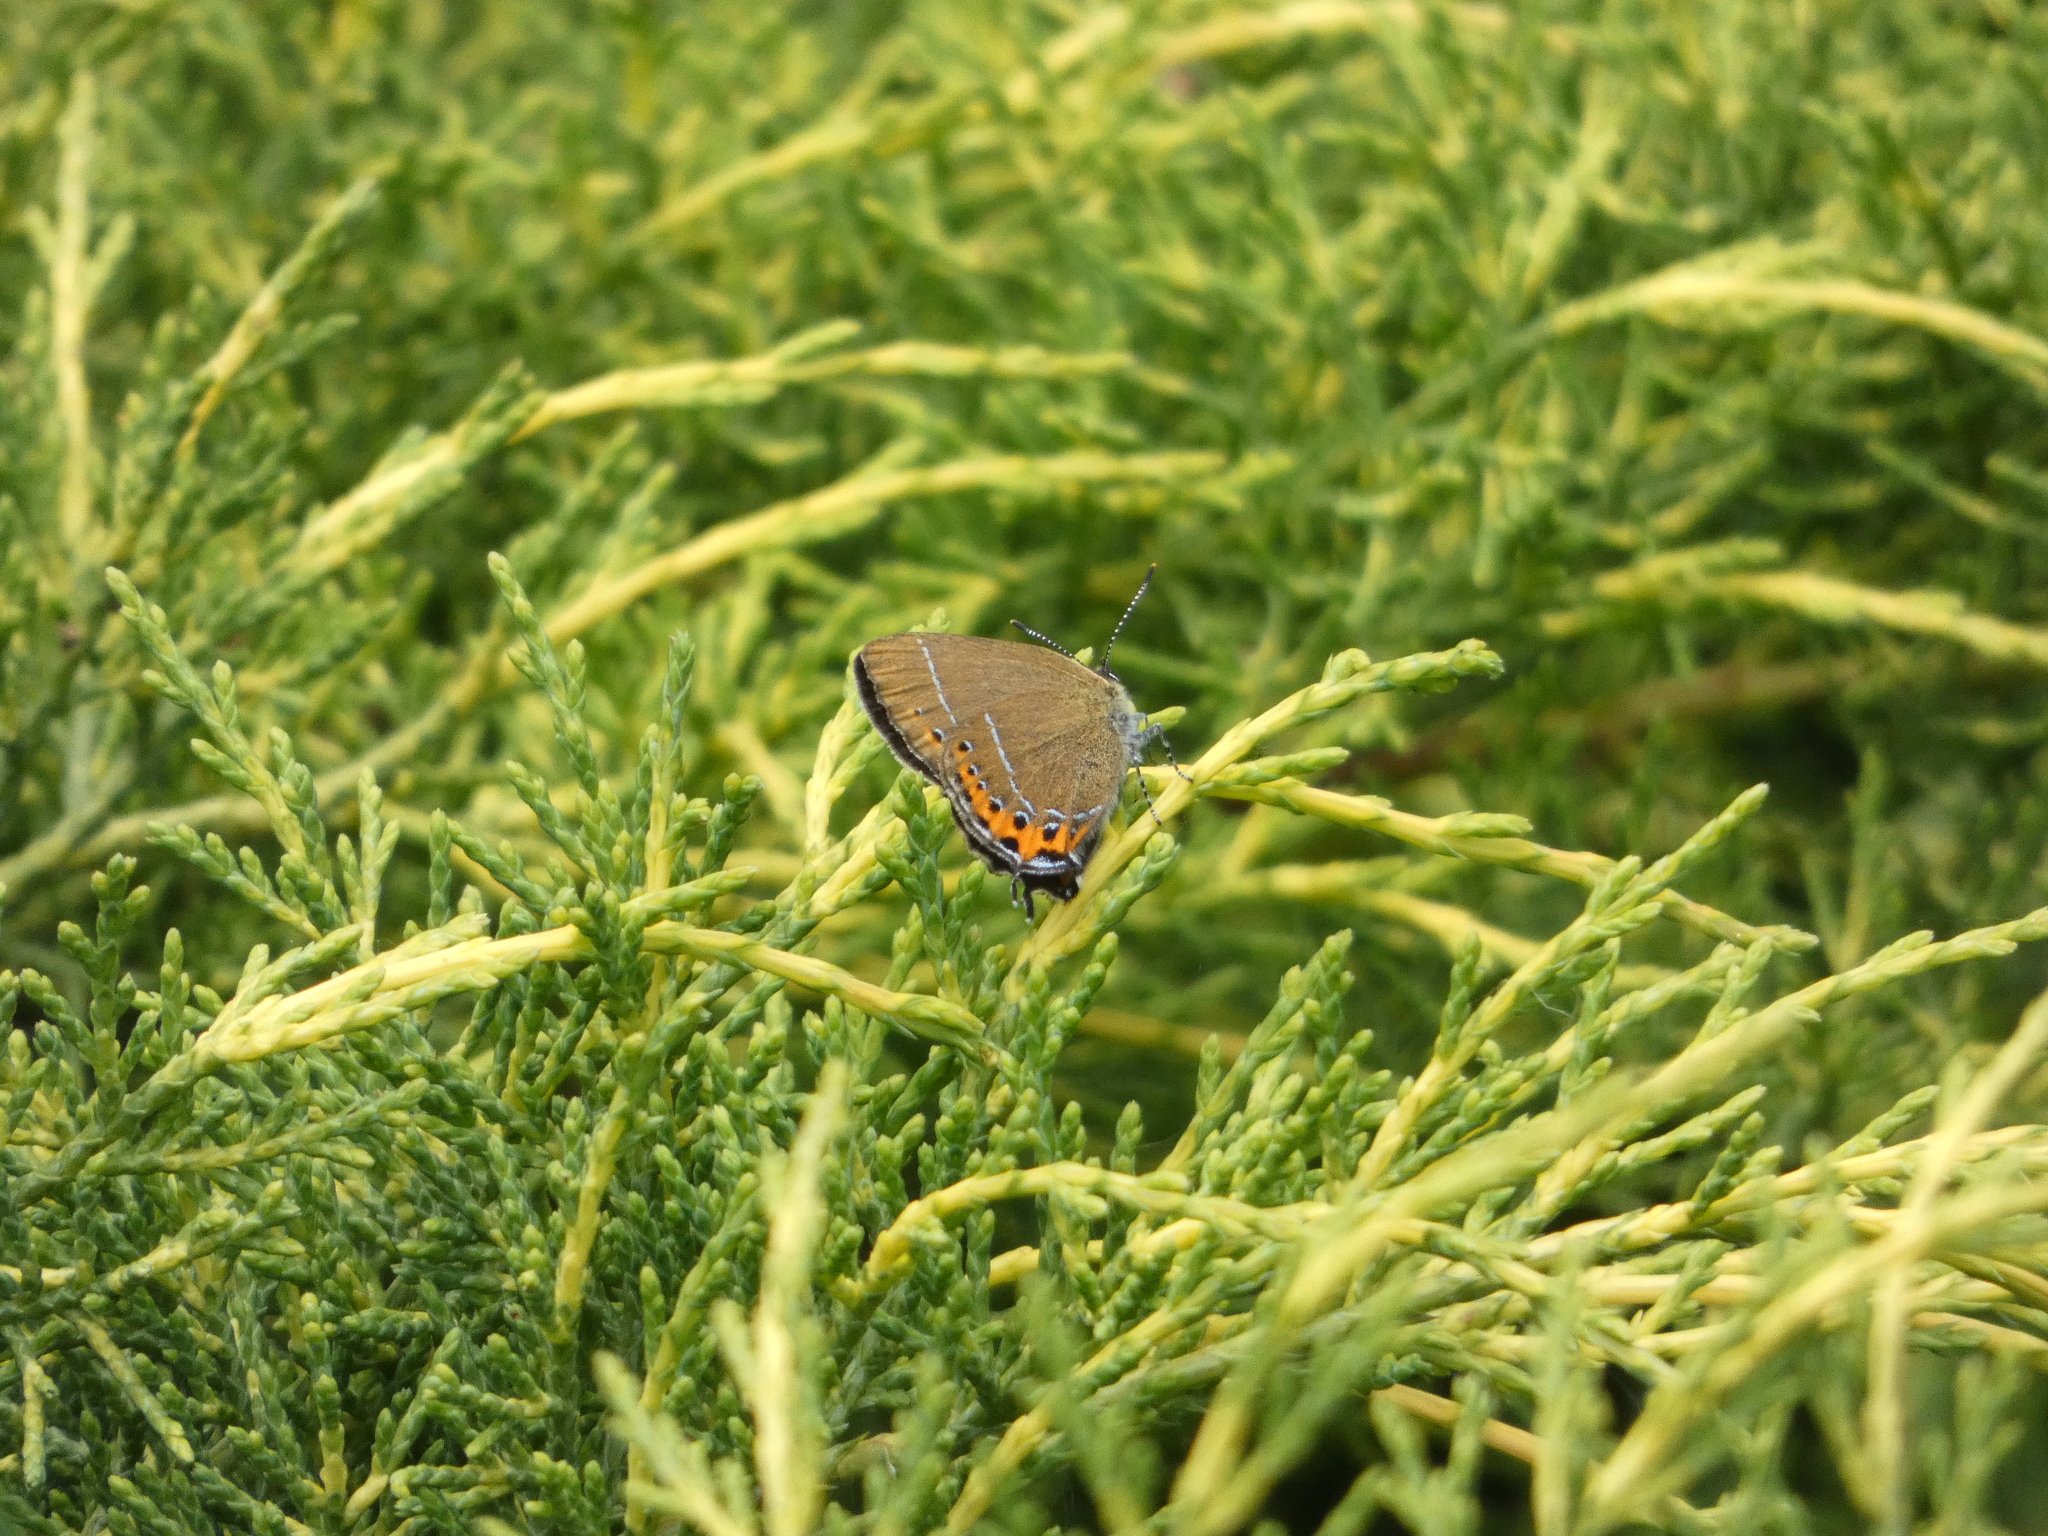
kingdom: Animalia
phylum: Arthropoda
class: Insecta
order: Lepidoptera
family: Lycaenidae
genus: Fixsenia
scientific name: Fixsenia pruni
